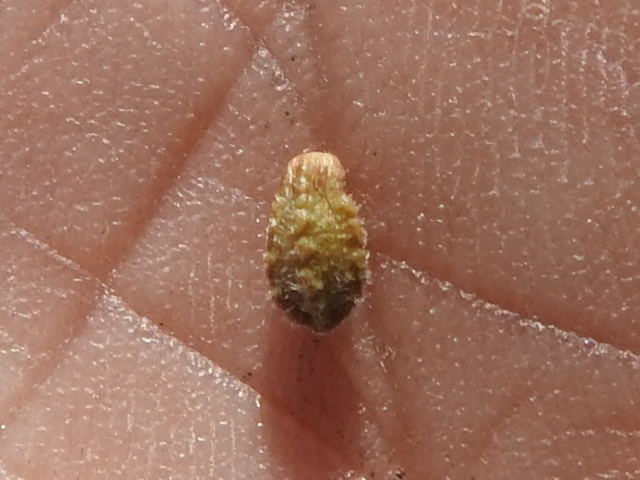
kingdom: Plantae
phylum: Tracheophyta
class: Magnoliopsida
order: Caryophyllales
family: Nyctaginaceae
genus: Mirabilis
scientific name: Mirabilis comata
